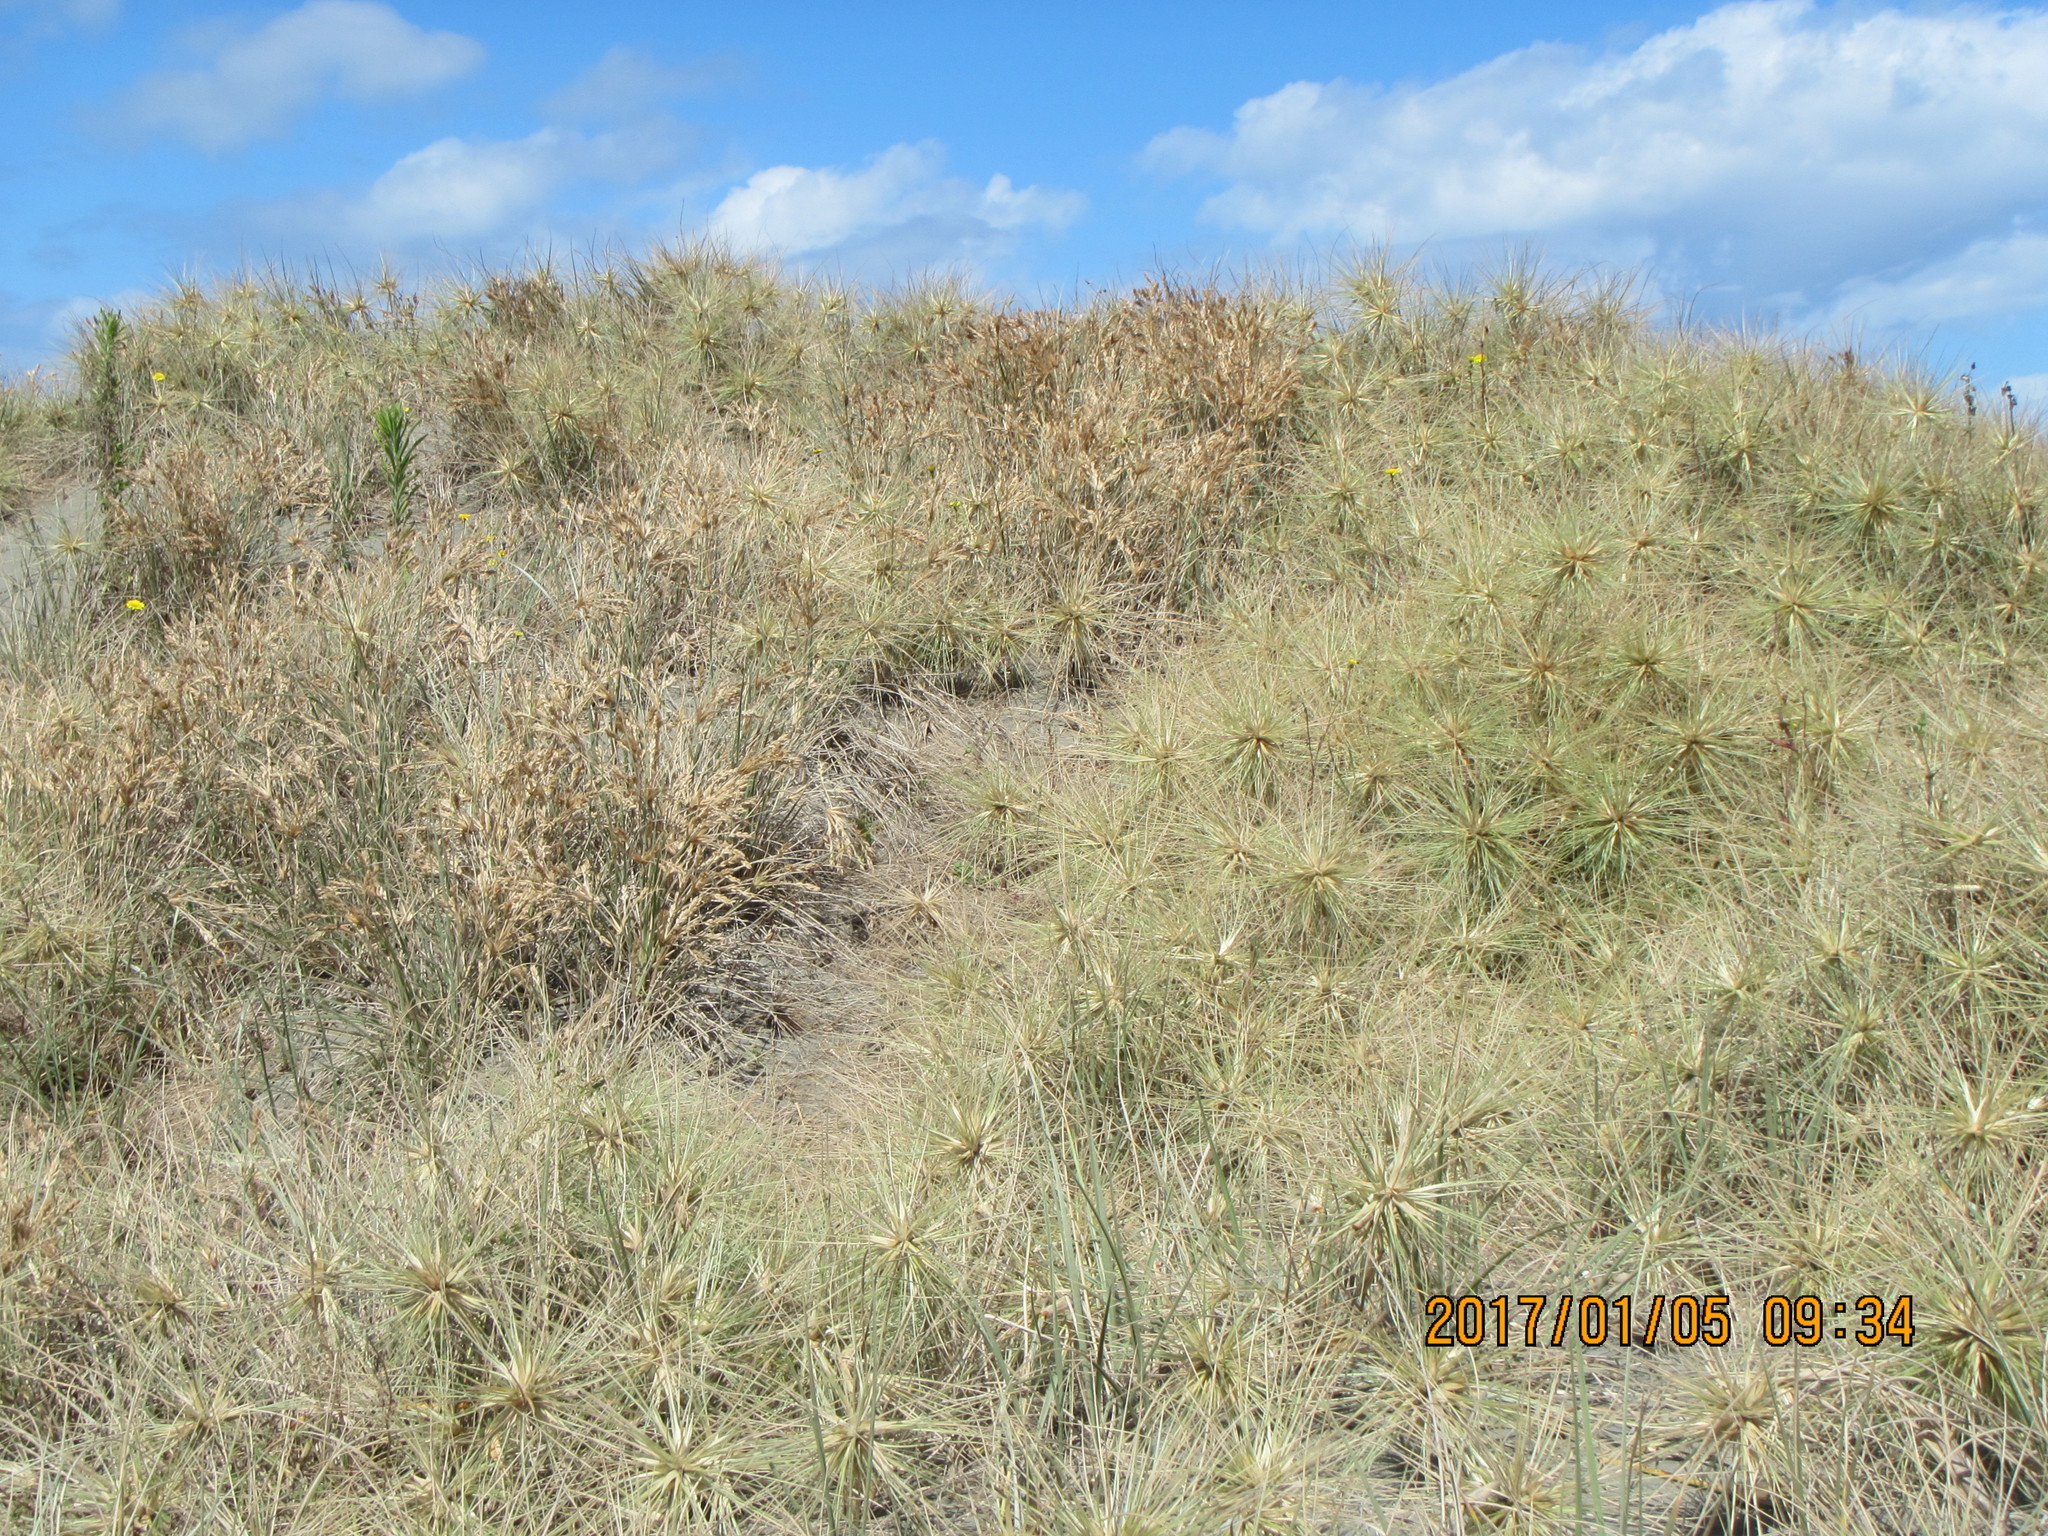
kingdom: Plantae
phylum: Tracheophyta
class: Liliopsida
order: Poales
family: Poaceae
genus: Spinifex
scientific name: Spinifex sericeus
